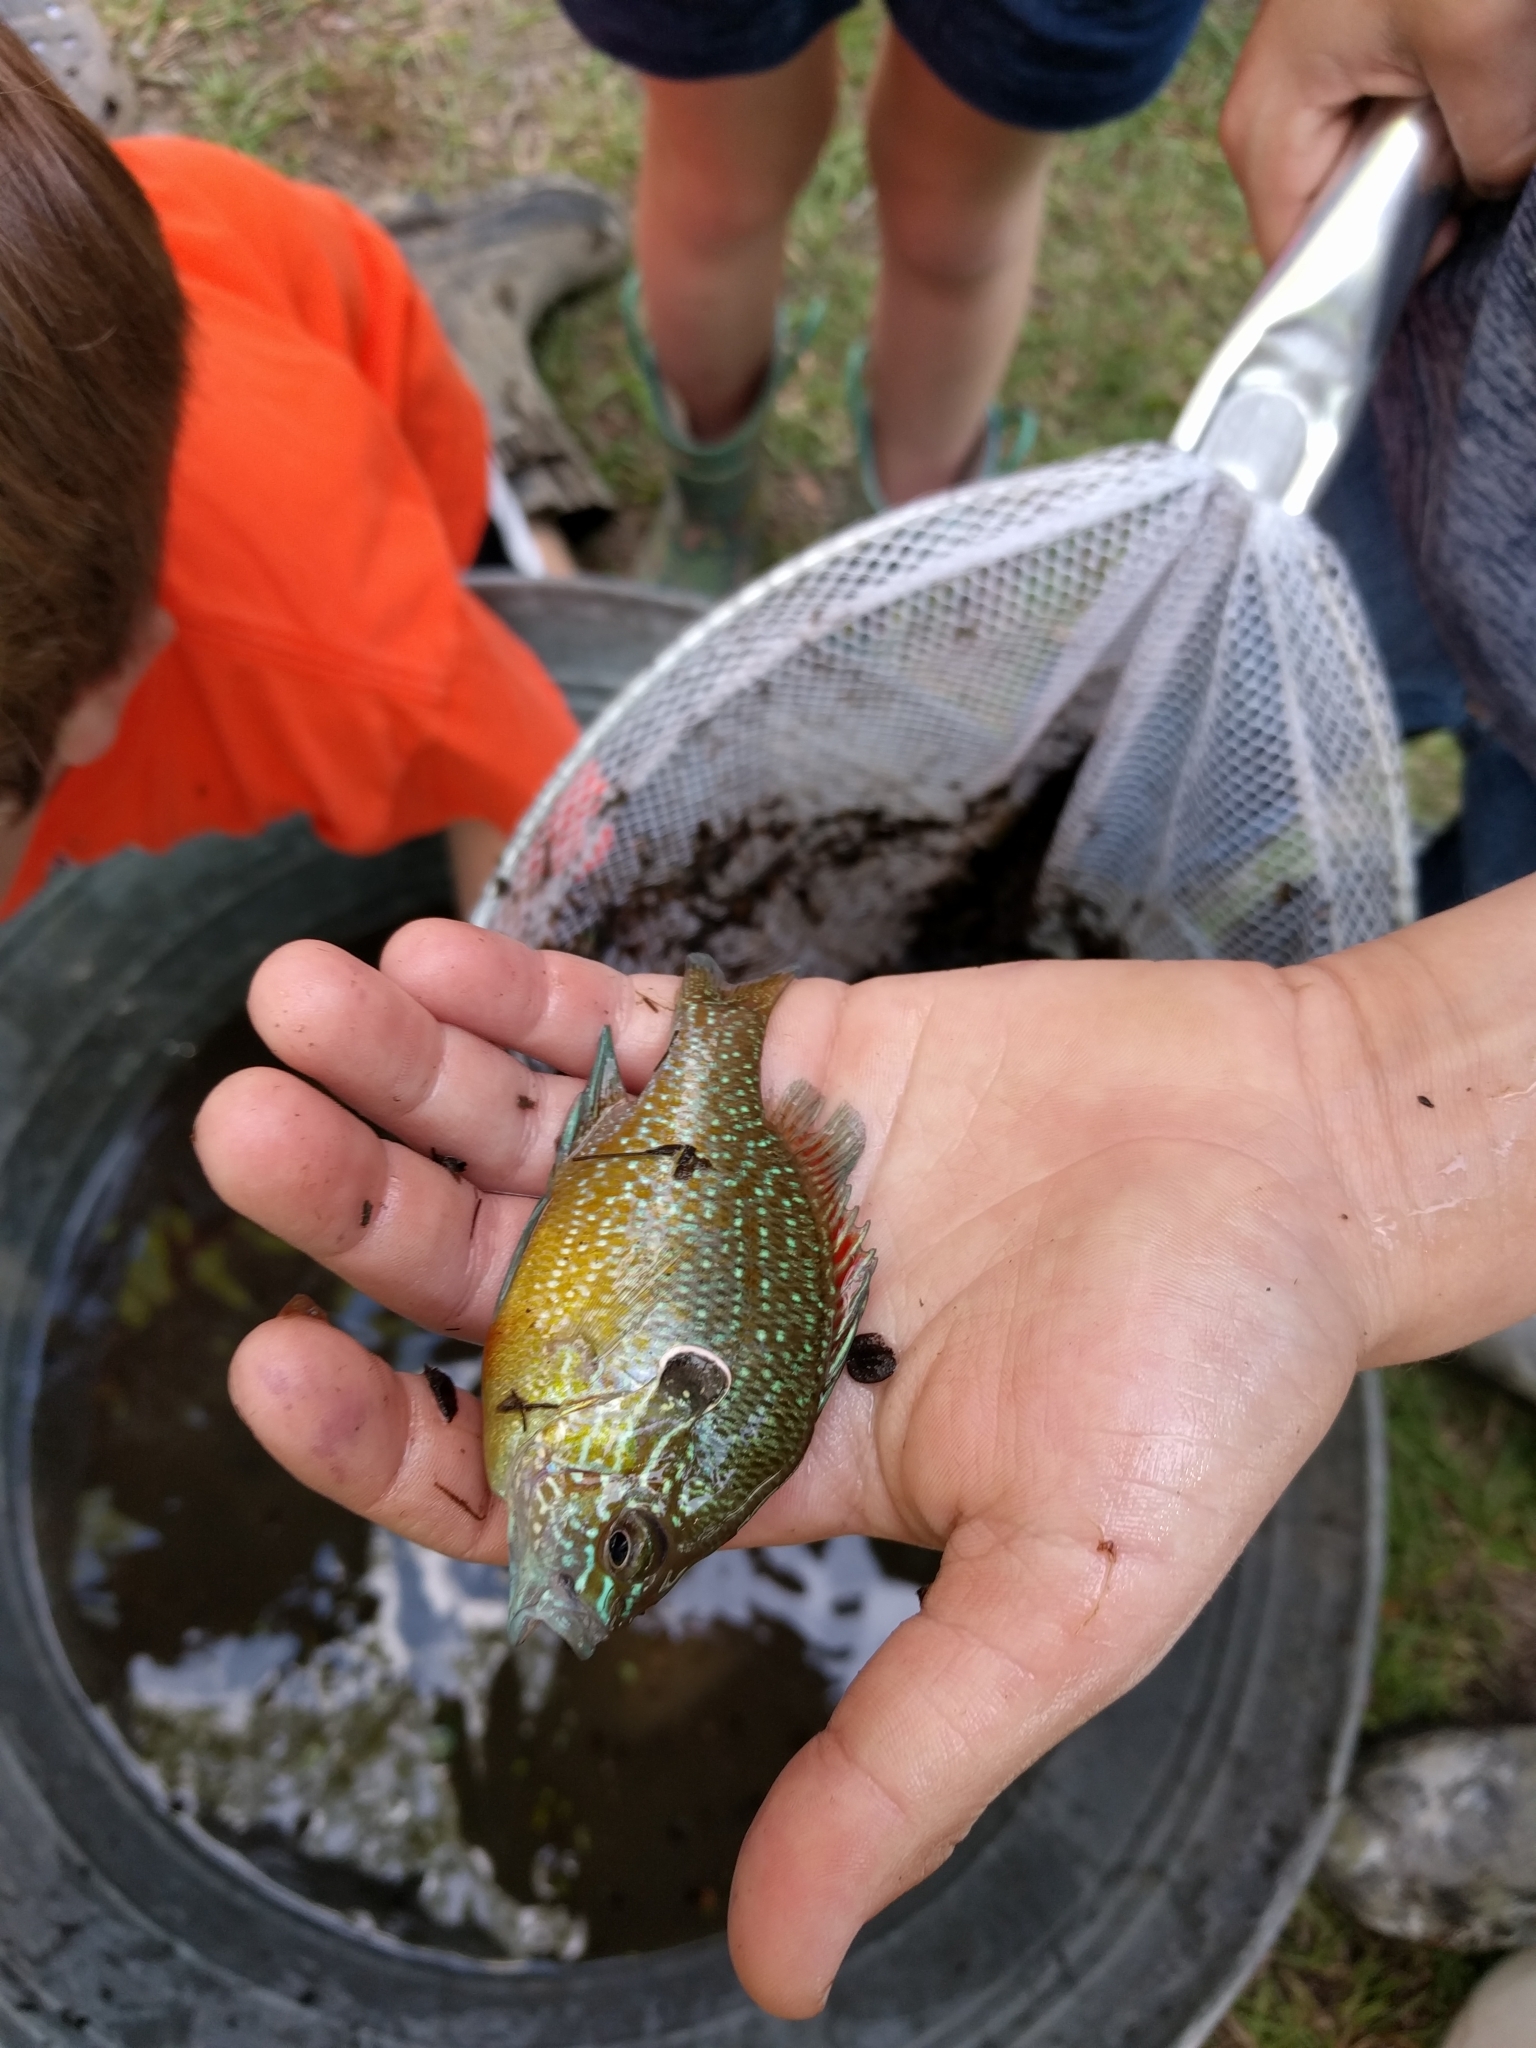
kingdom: Animalia
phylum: Chordata
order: Perciformes
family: Centrarchidae
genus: Lepomis
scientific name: Lepomis marginatus
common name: Dollar sunfish
